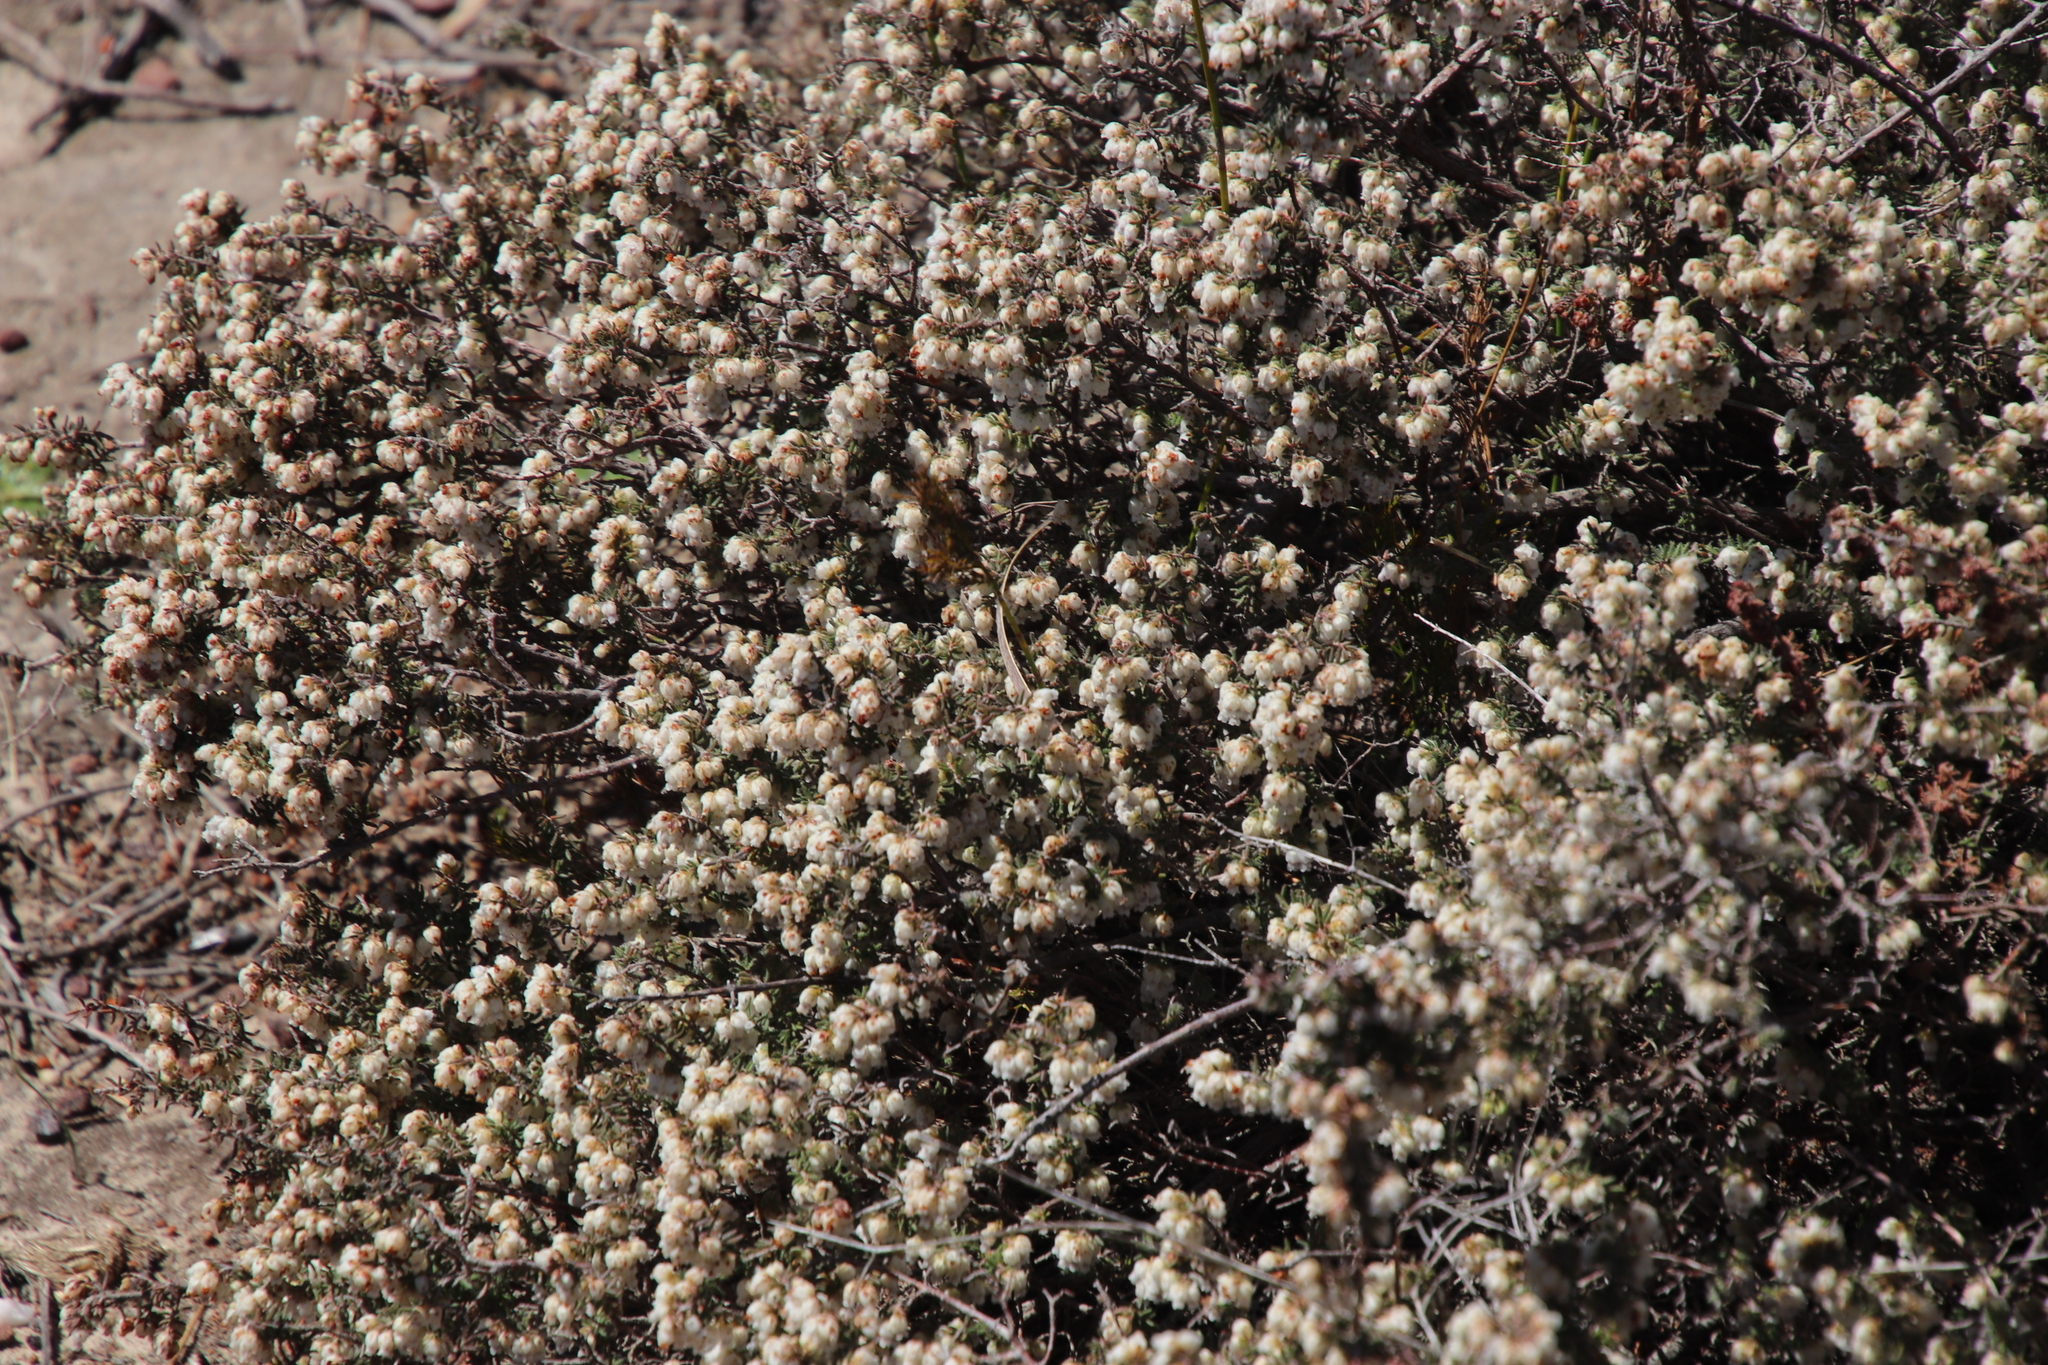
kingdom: Plantae
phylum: Tracheophyta
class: Magnoliopsida
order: Ericales
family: Ericaceae
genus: Erica
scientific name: Erica totta
